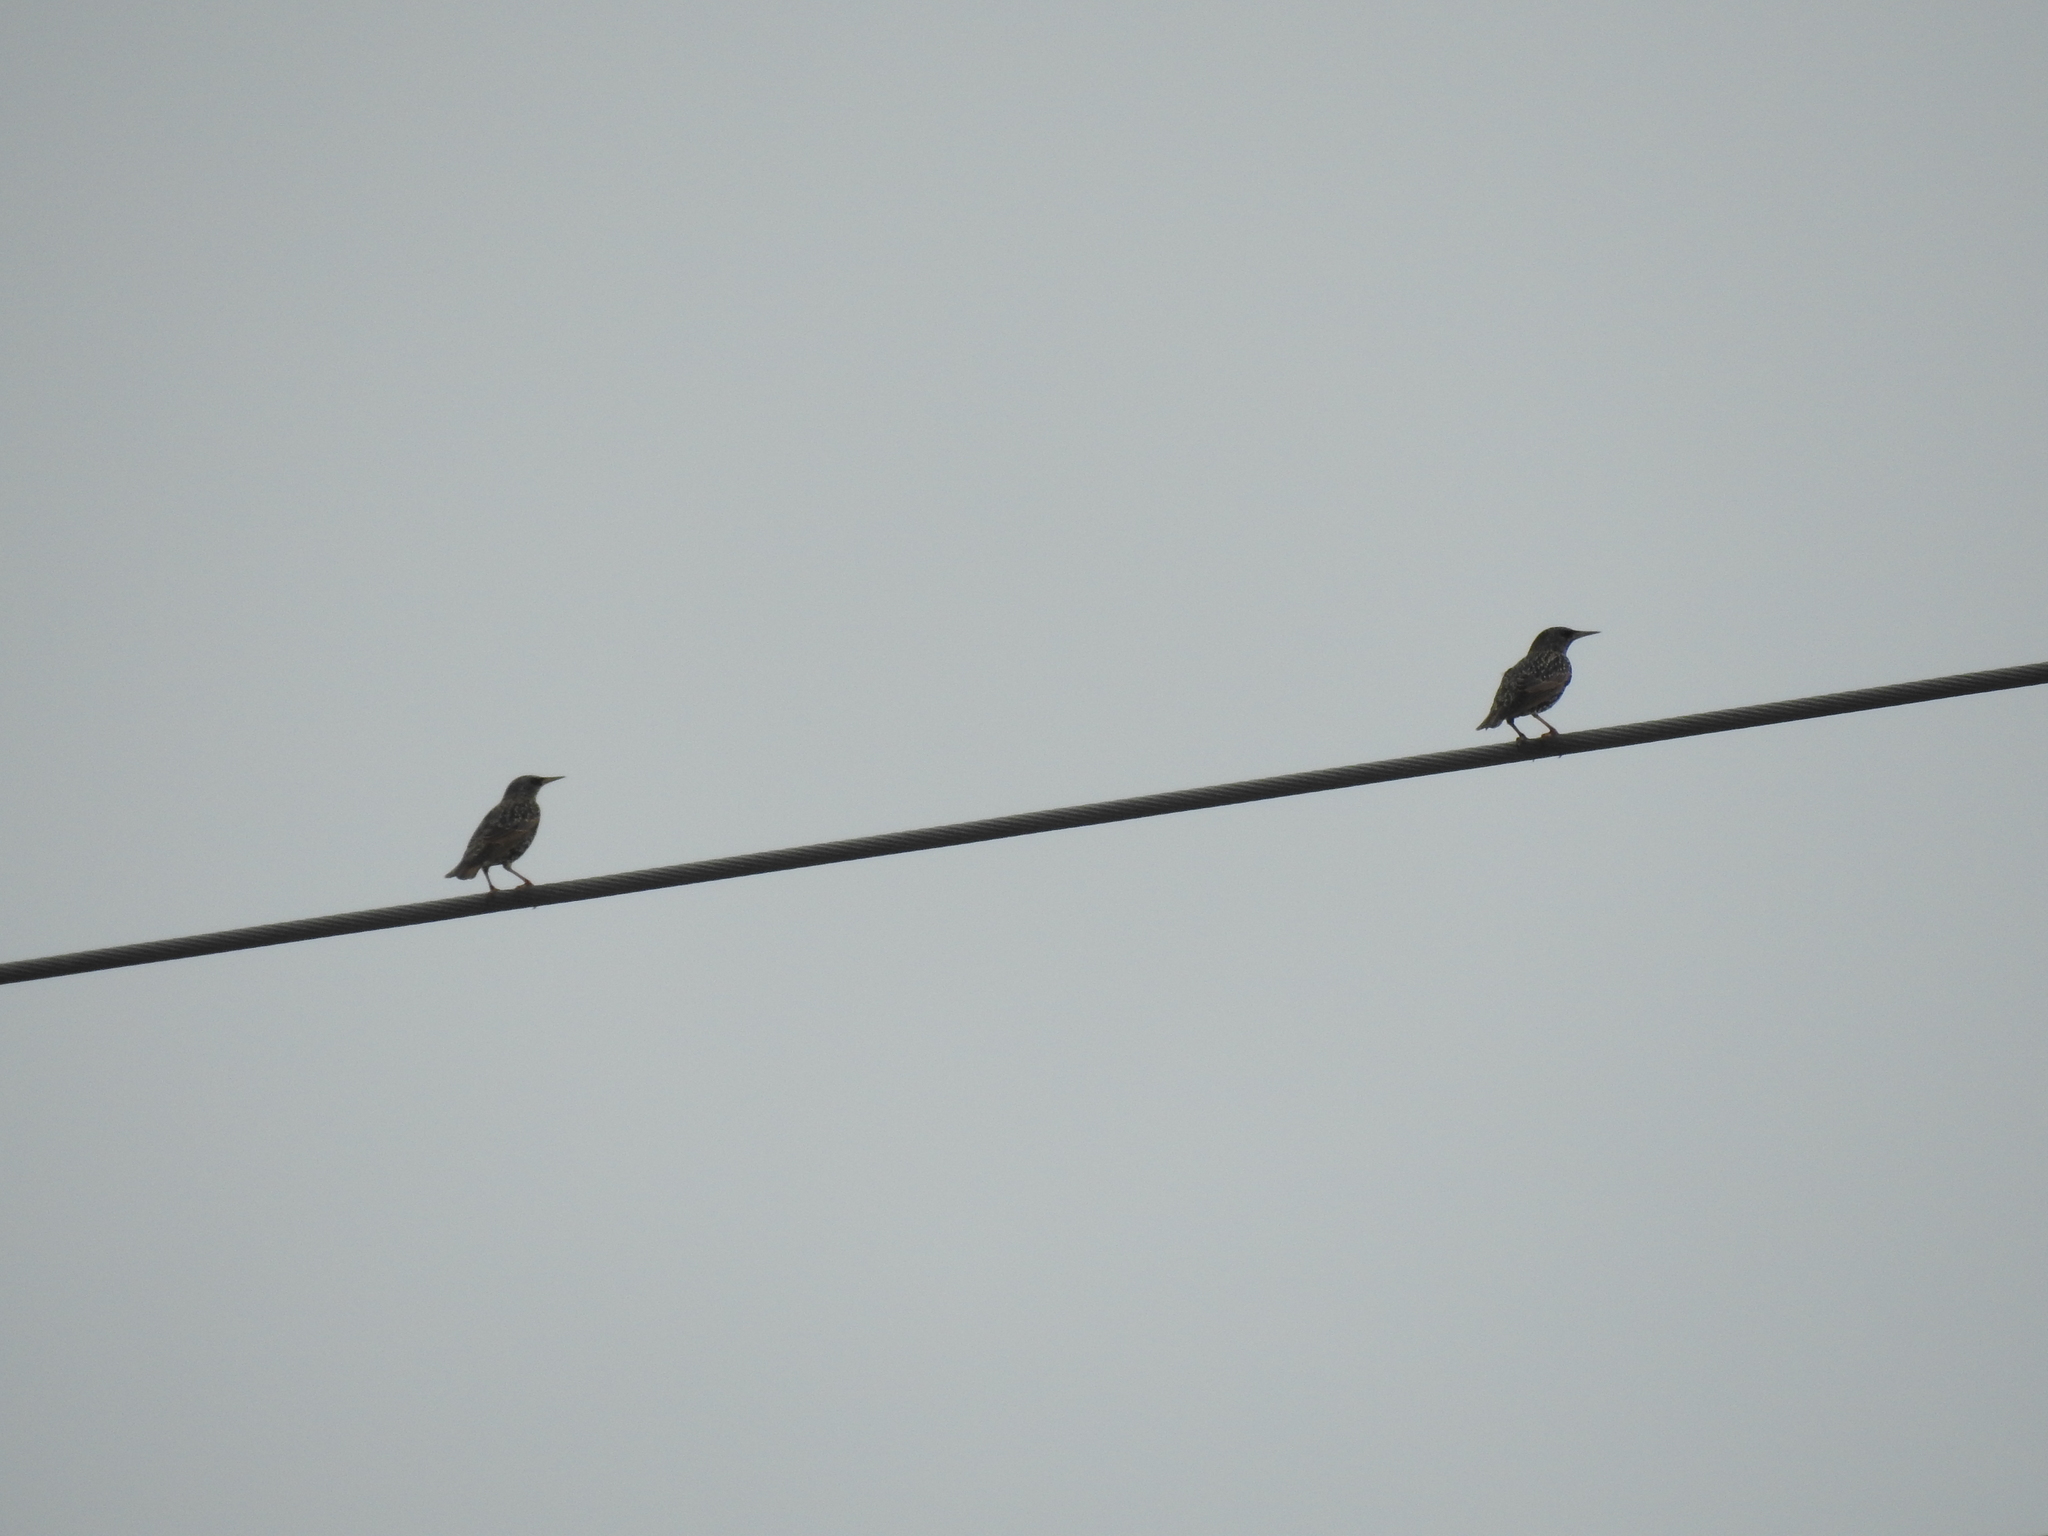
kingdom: Animalia
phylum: Chordata
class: Aves
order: Passeriformes
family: Sturnidae
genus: Sturnus
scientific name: Sturnus vulgaris
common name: Common starling
